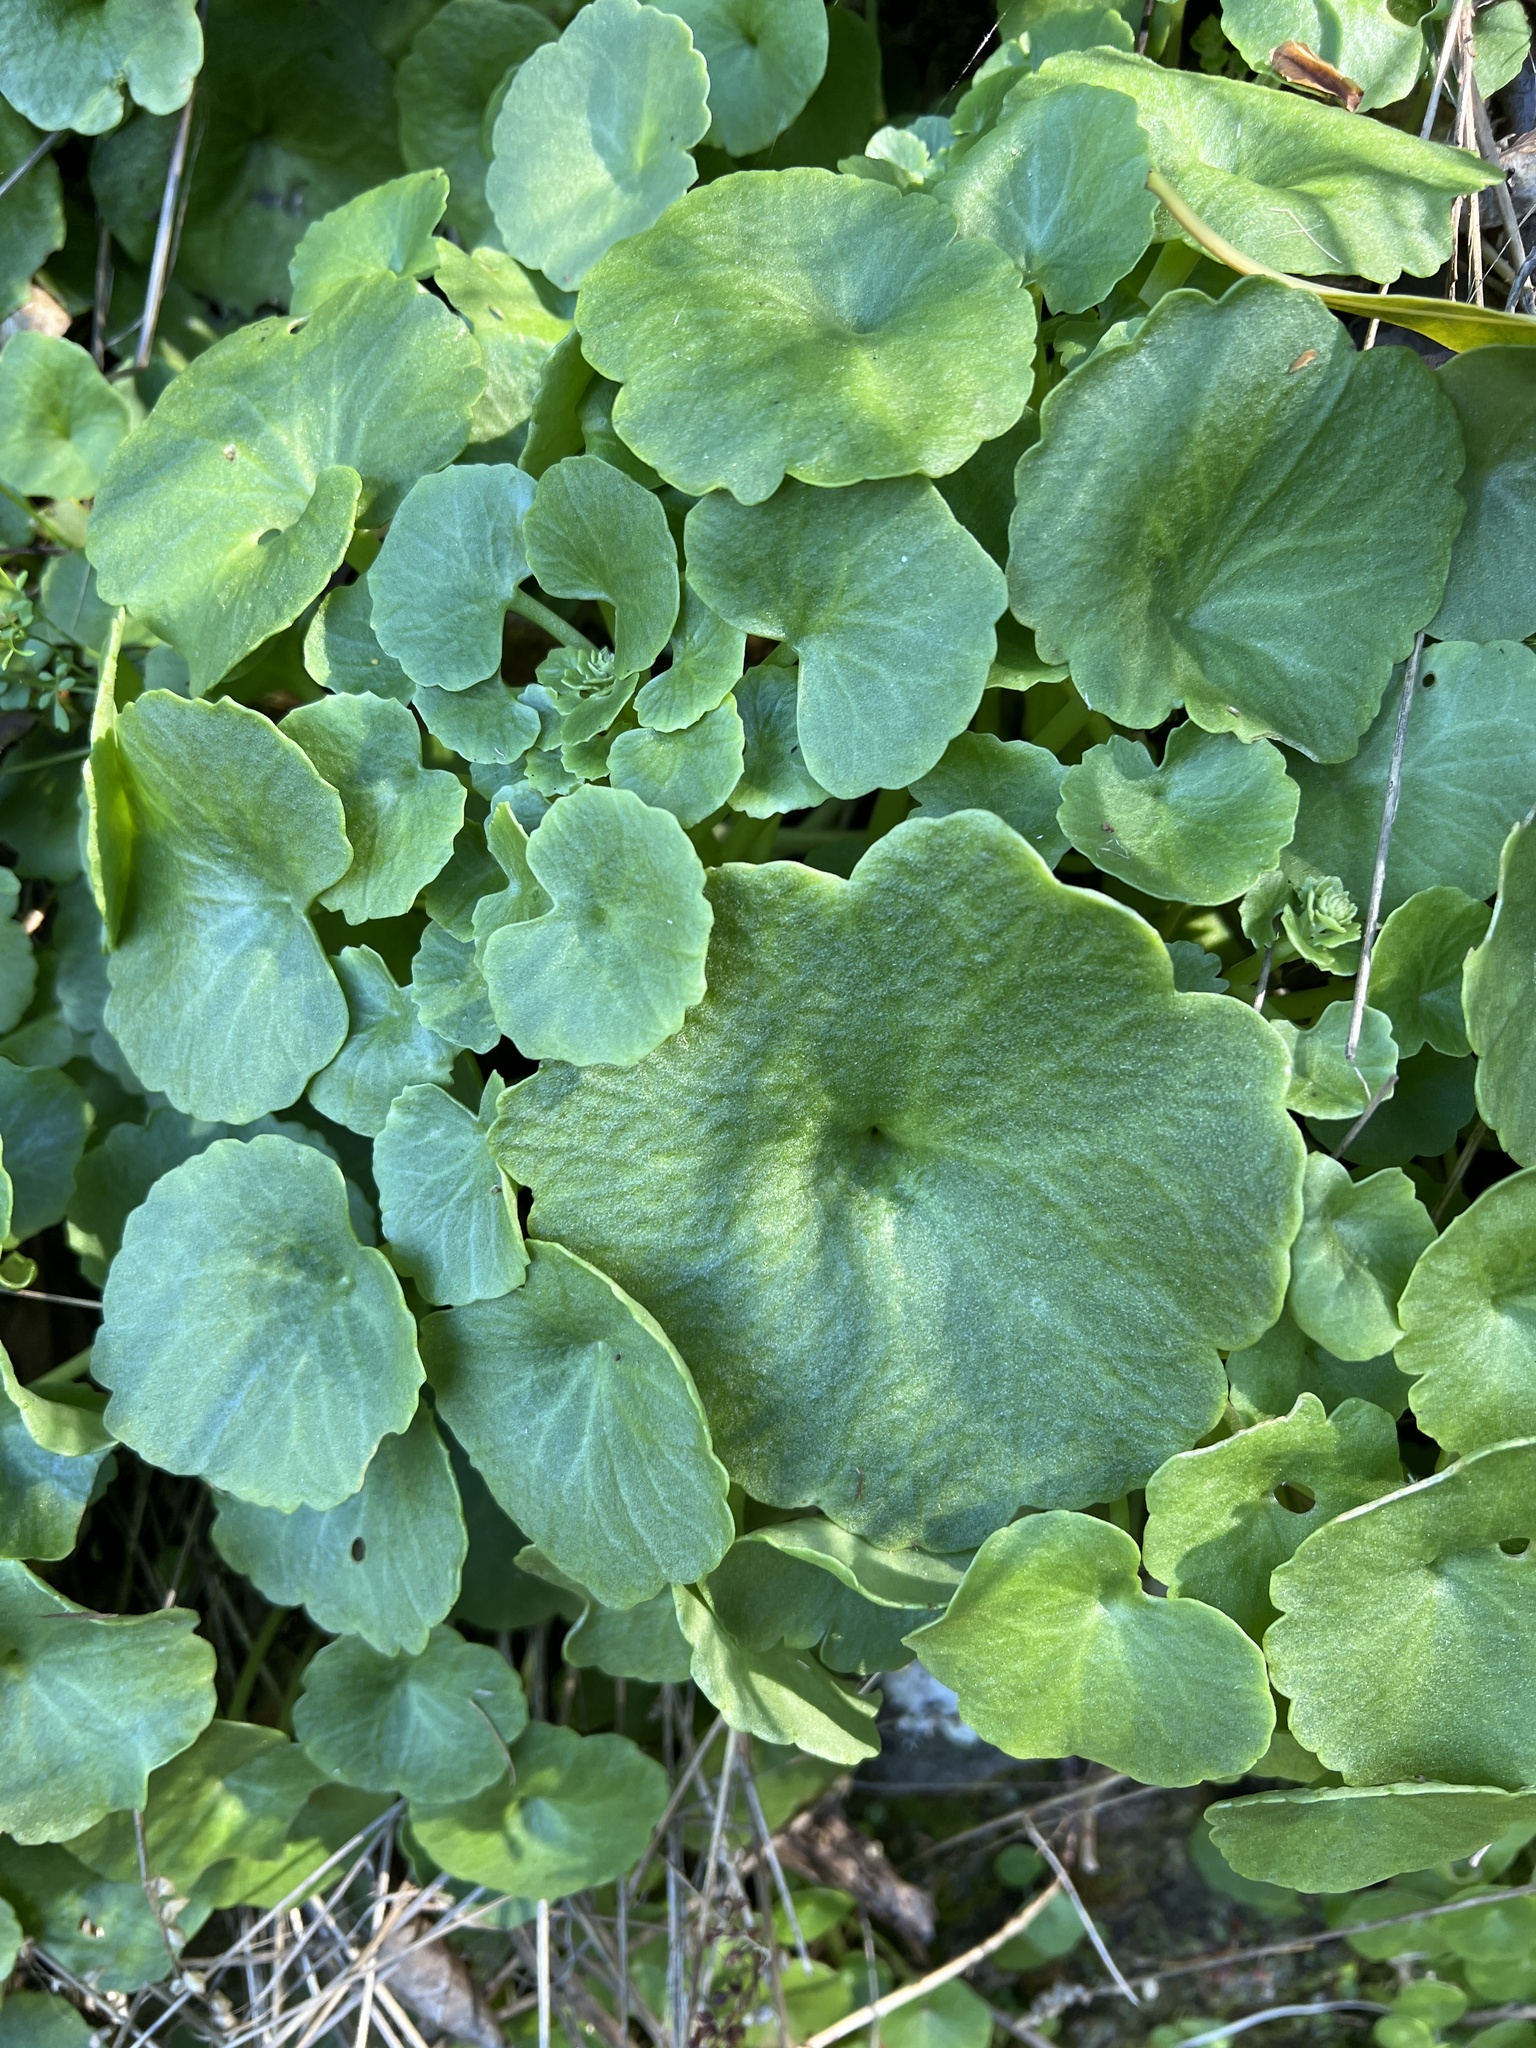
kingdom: Plantae
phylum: Tracheophyta
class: Magnoliopsida
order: Saxifragales
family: Crassulaceae
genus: Umbilicus
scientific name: Umbilicus rupestris
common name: Navelwort
